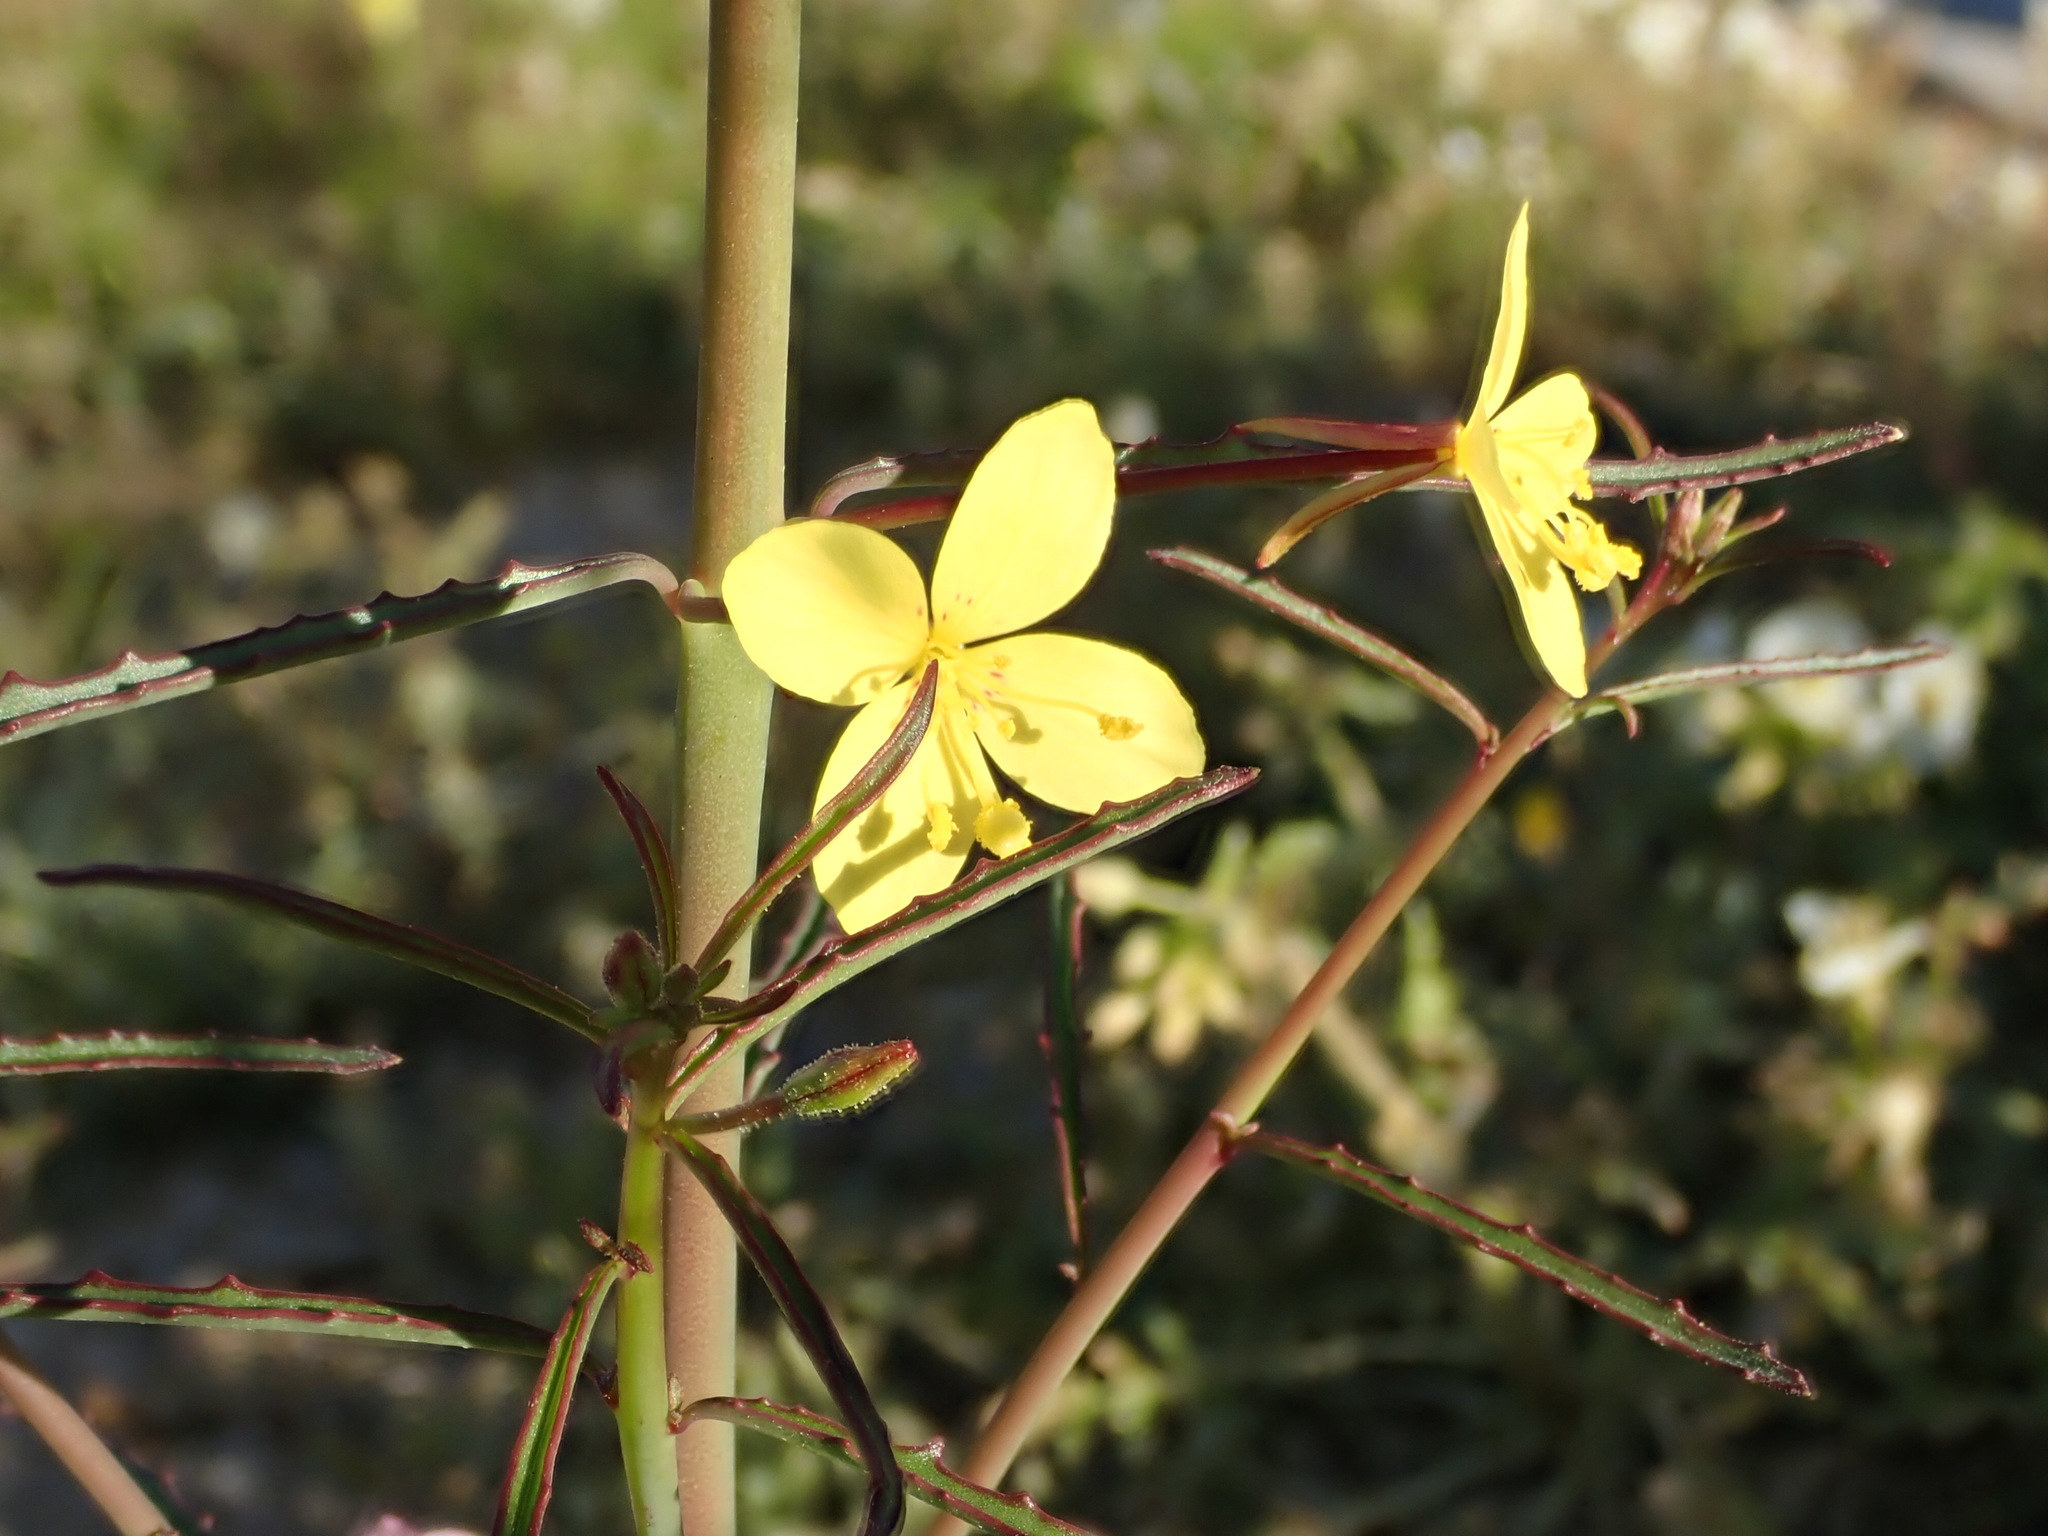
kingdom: Plantae
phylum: Tracheophyta
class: Magnoliopsida
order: Myrtales
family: Onagraceae
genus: Eulobus
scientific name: Eulobus californicus
